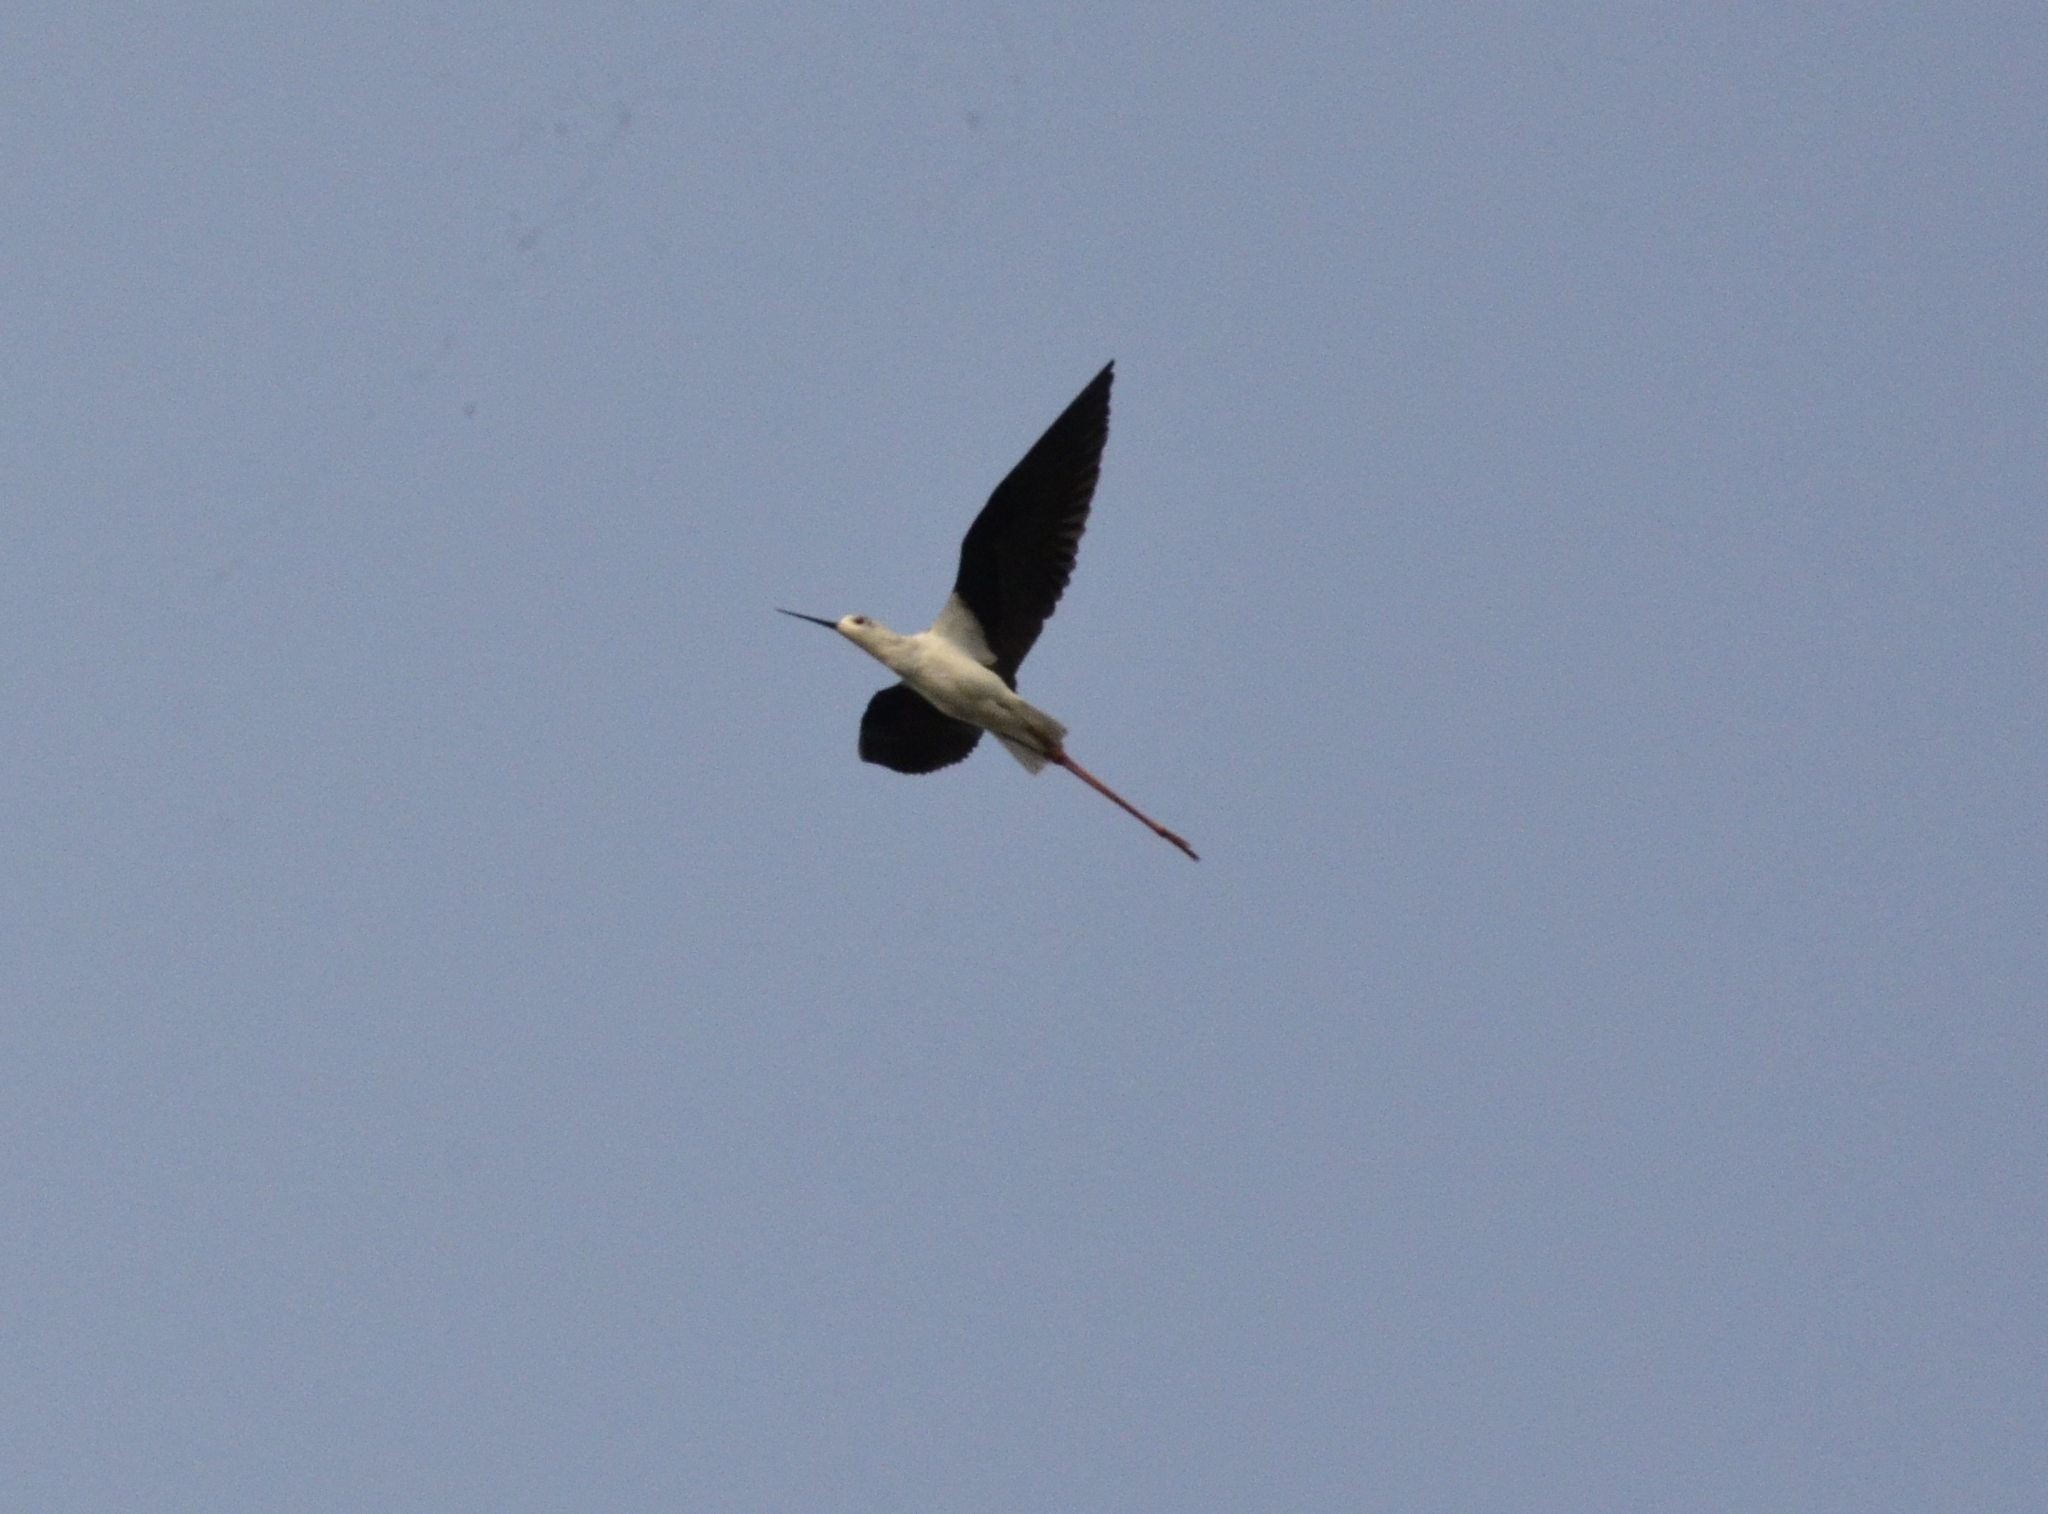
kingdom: Animalia
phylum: Chordata
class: Aves
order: Charadriiformes
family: Recurvirostridae
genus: Himantopus
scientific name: Himantopus himantopus
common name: Black-winged stilt
